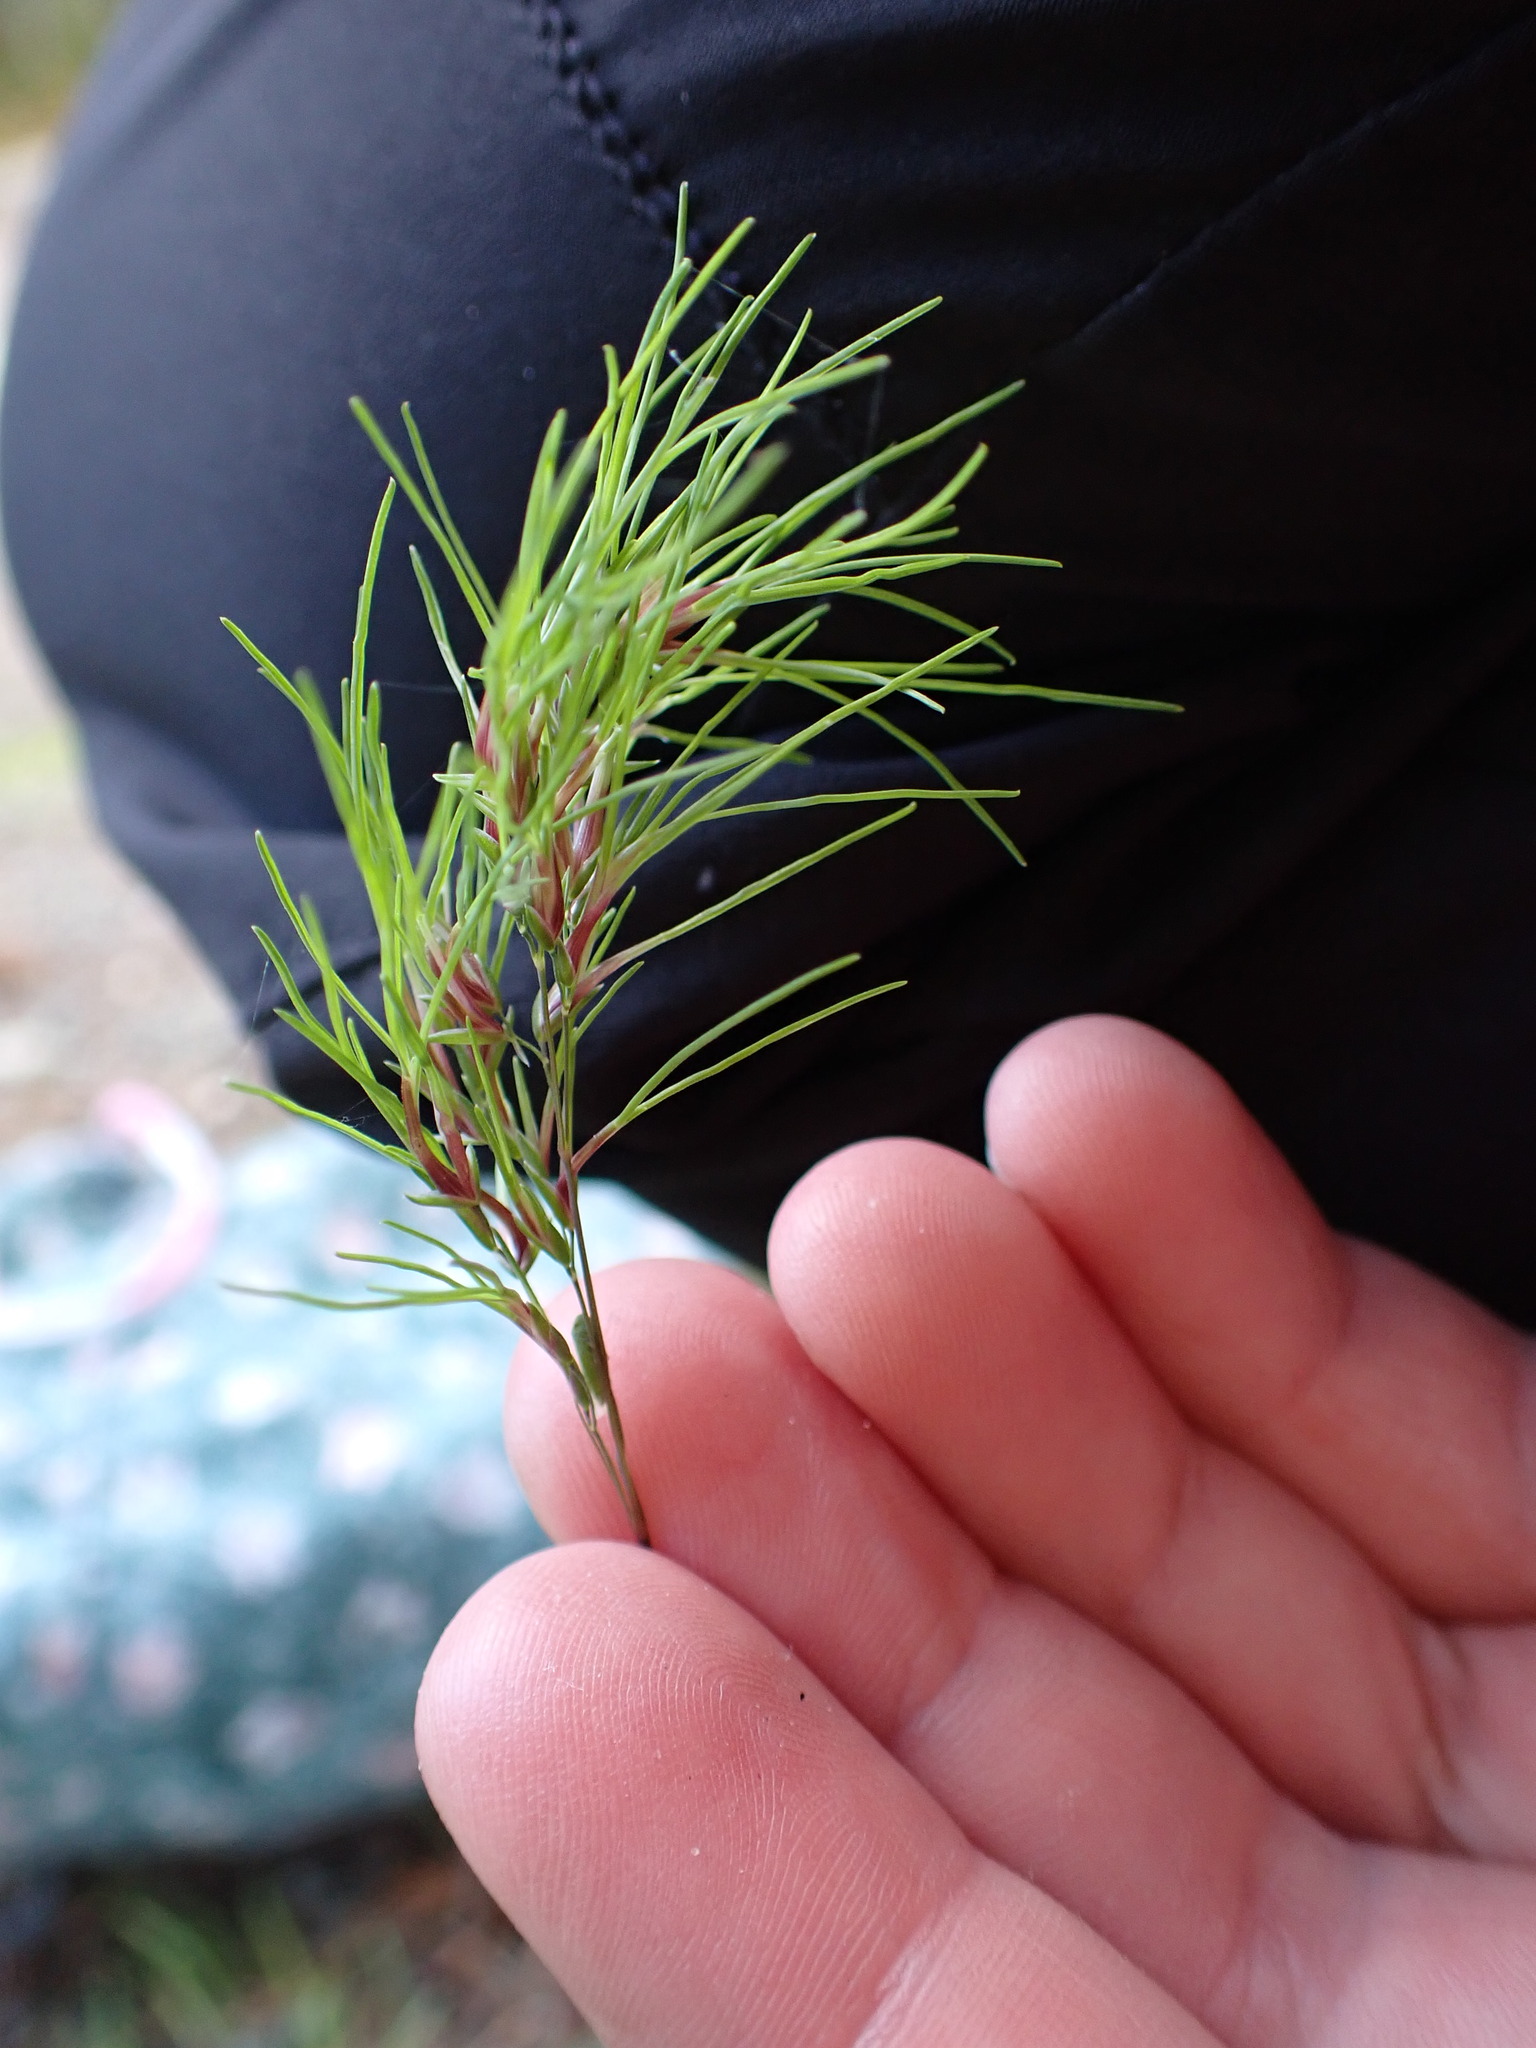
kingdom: Plantae
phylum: Tracheophyta
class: Liliopsida
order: Poales
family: Poaceae
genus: Poa
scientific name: Poa bulbosa
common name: Bulbous bluegrass
